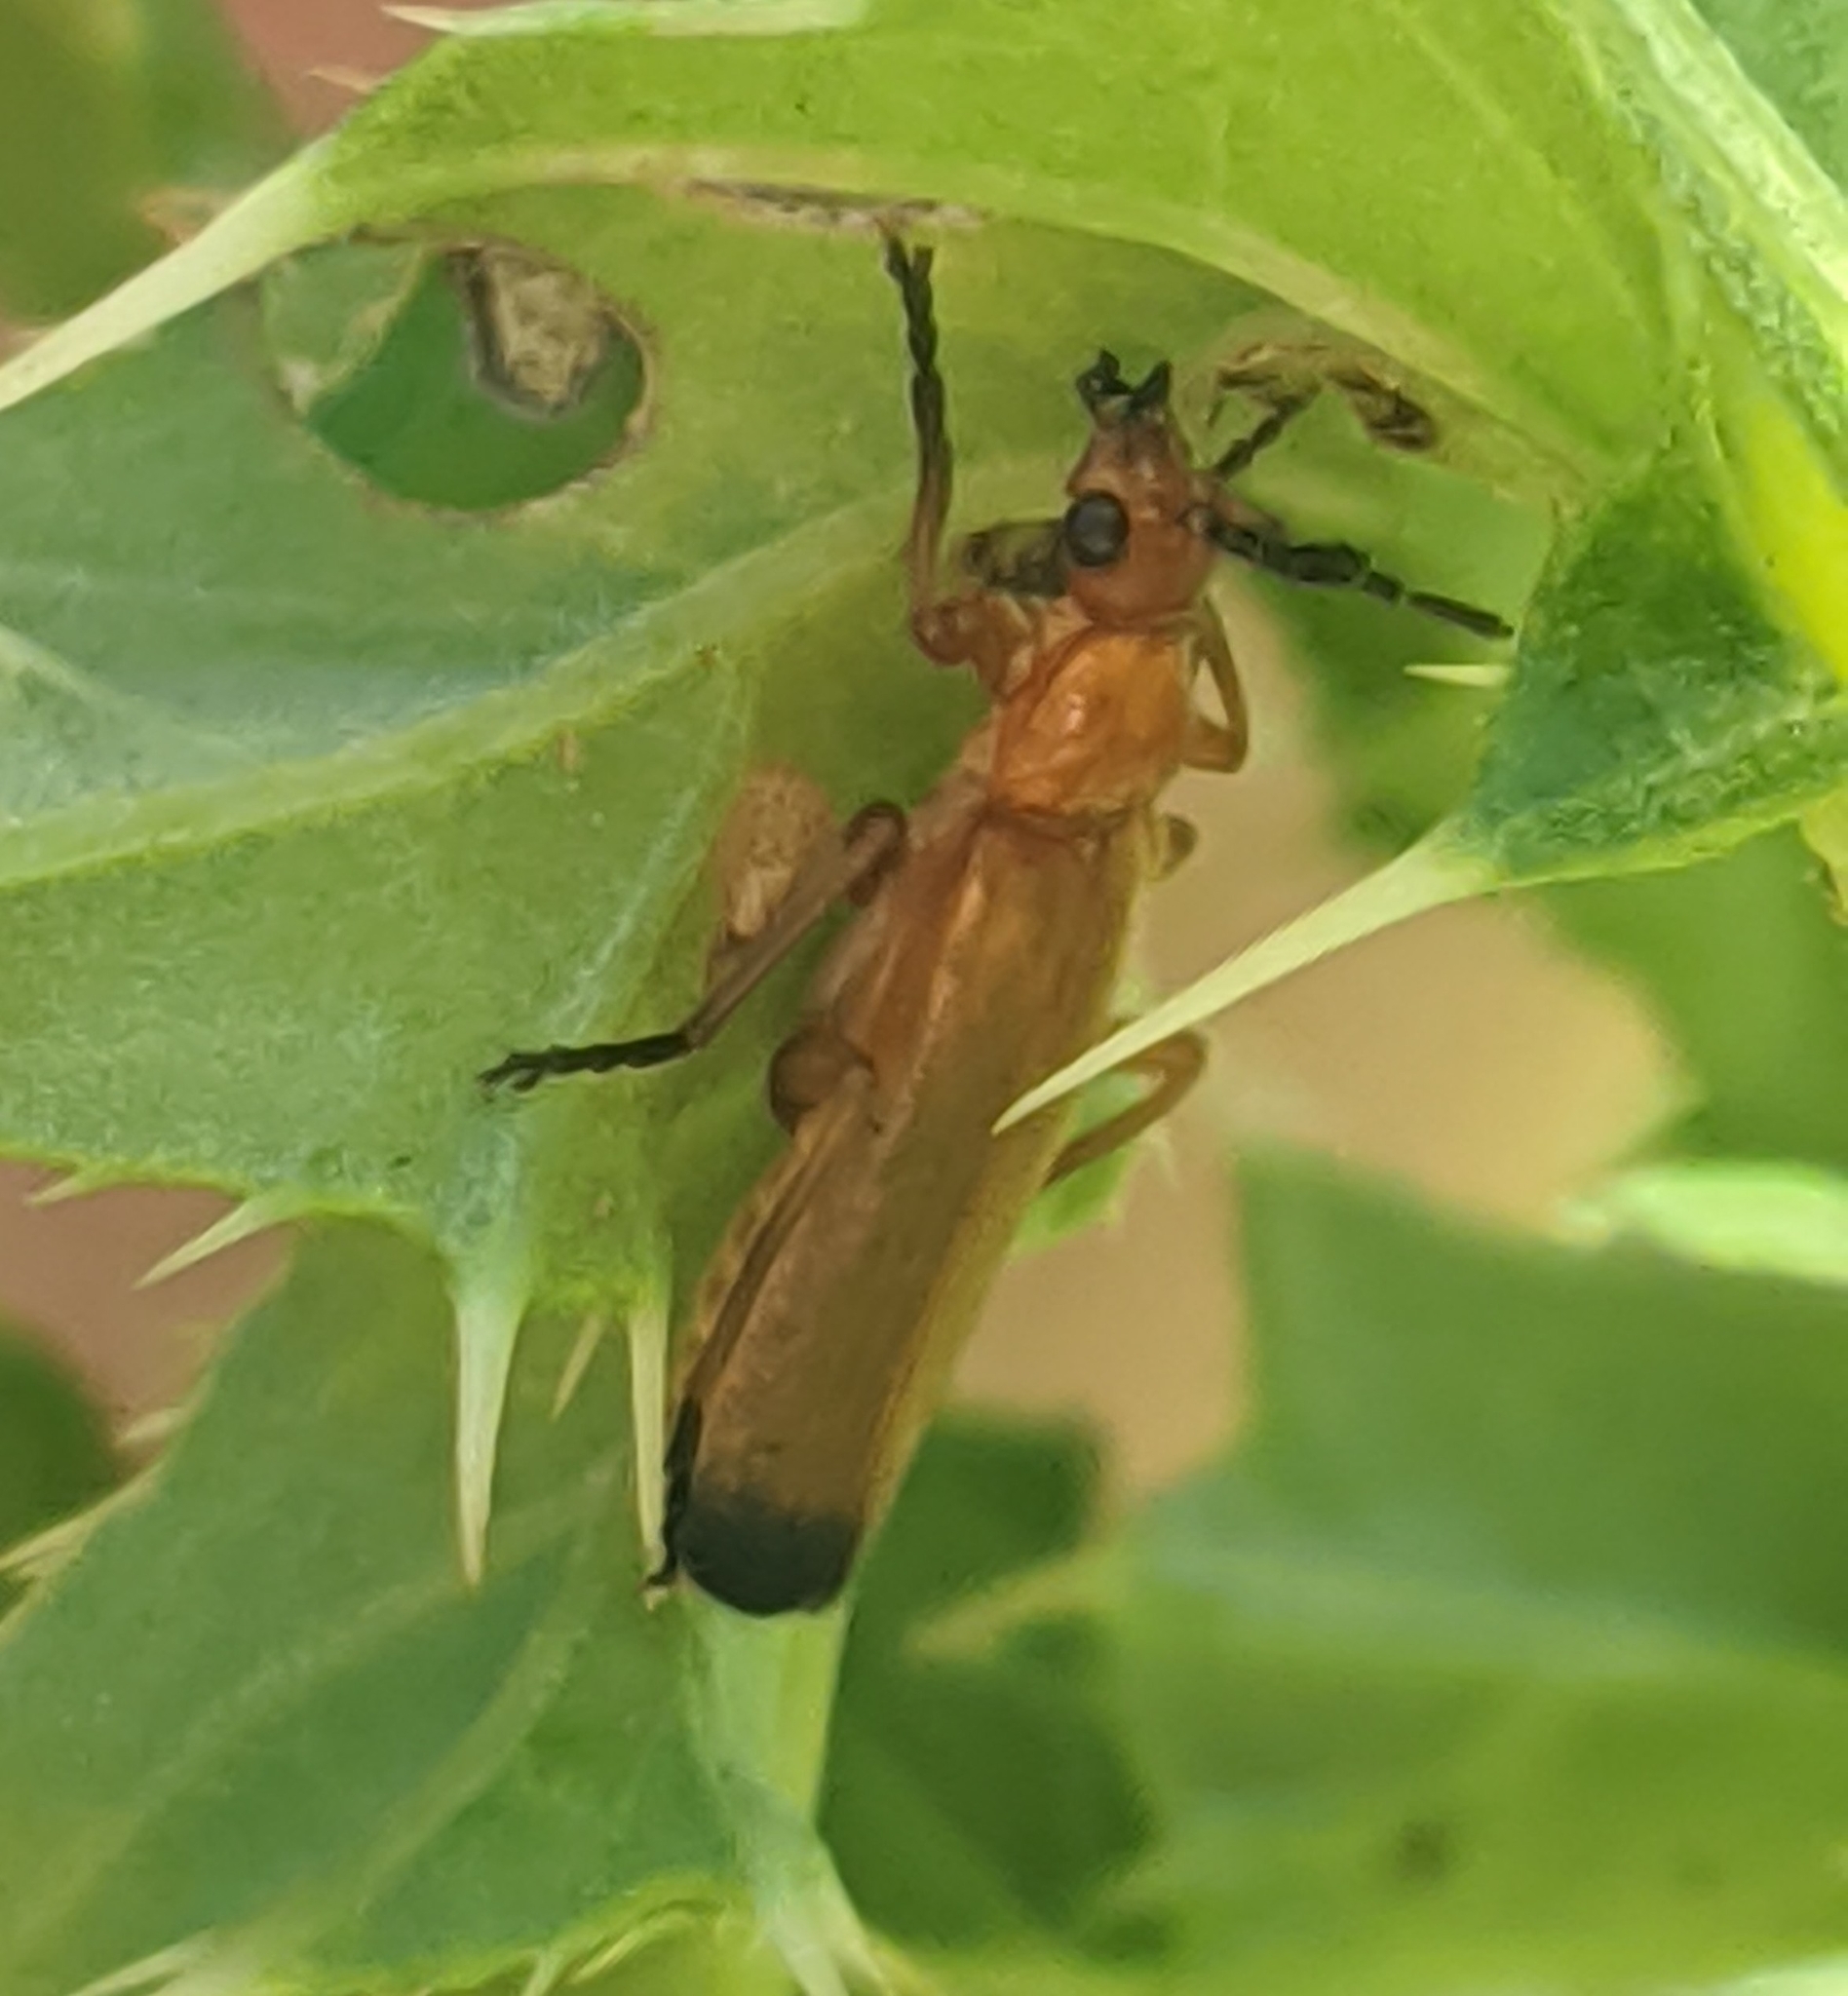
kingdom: Animalia
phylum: Arthropoda
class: Insecta
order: Coleoptera
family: Cantharidae
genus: Rhagonycha
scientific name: Rhagonycha fulva
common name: Common red soldier beetle
